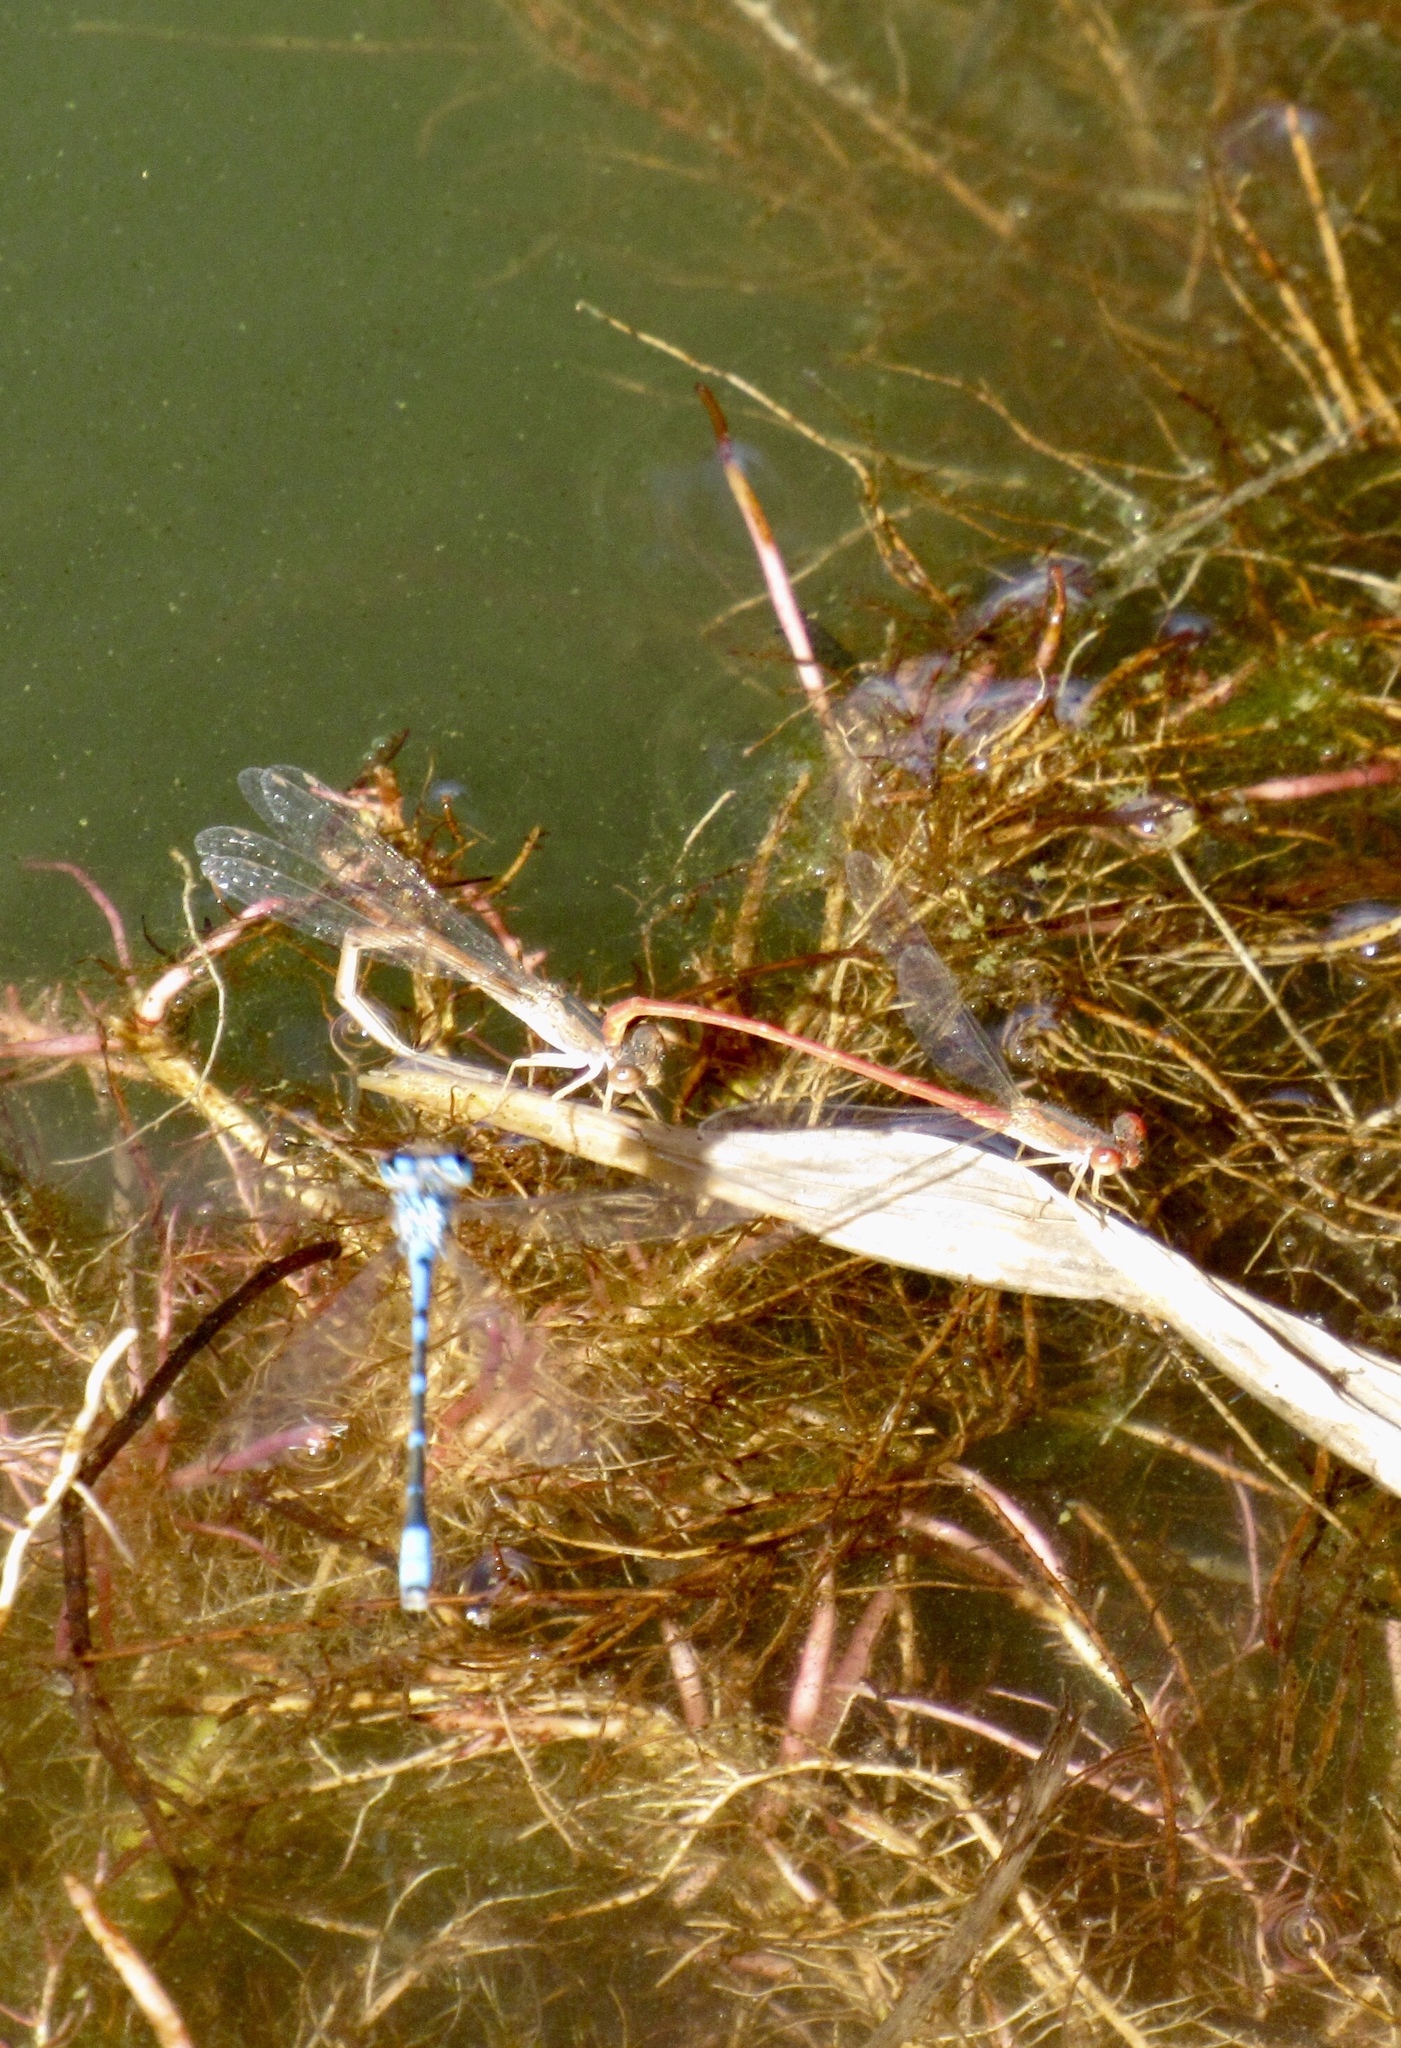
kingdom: Animalia
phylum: Arthropoda
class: Insecta
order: Odonata
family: Coenagrionidae
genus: Telebasis
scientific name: Telebasis salva
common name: Desert firetail
